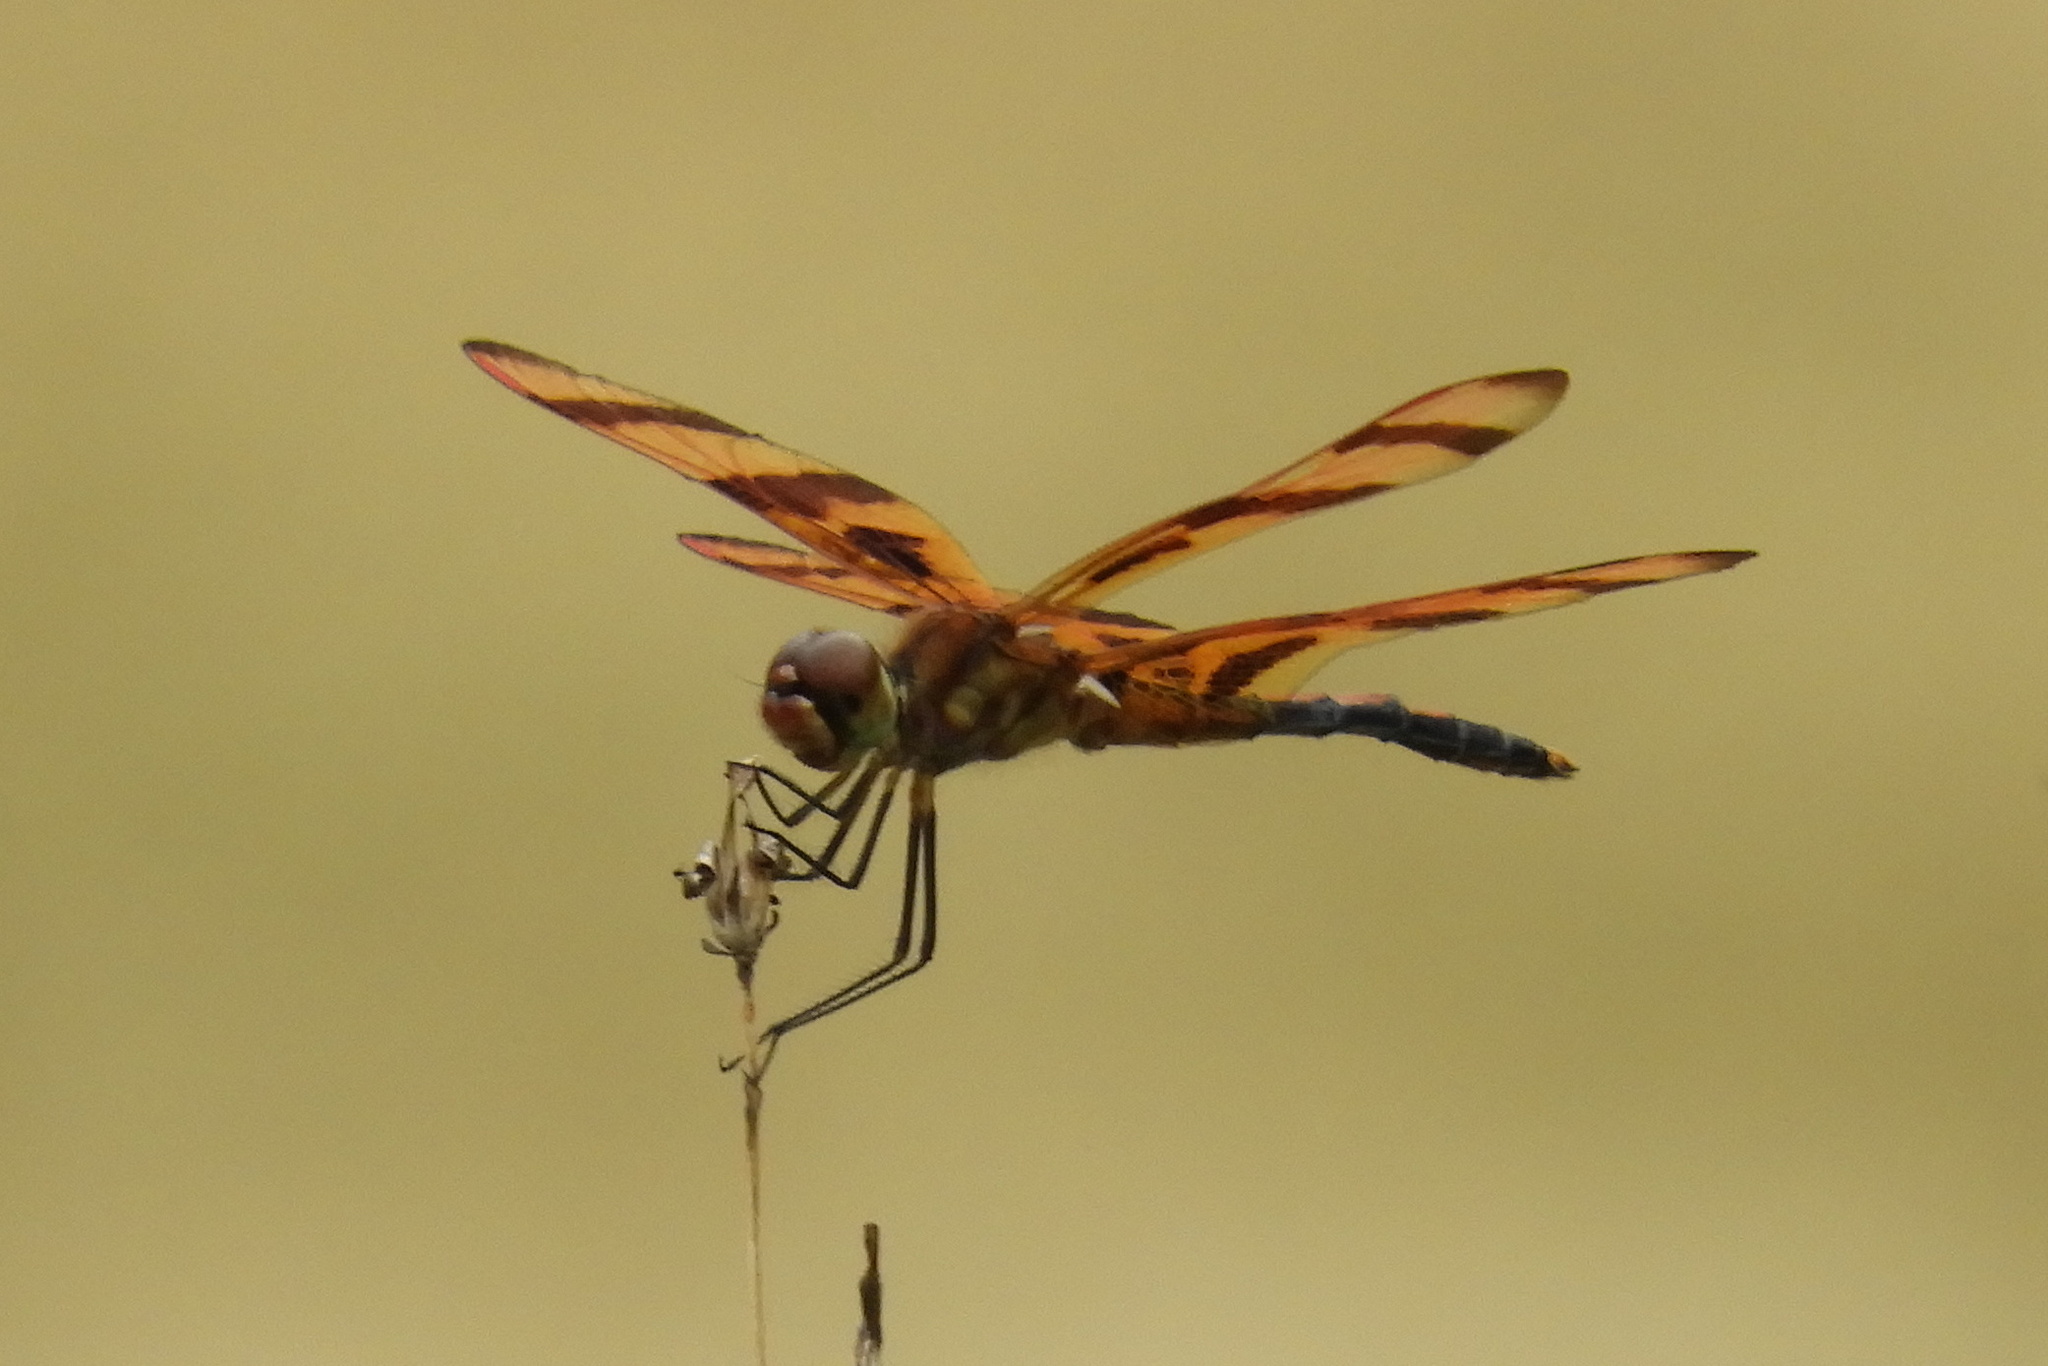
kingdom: Animalia
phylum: Arthropoda
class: Insecta
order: Odonata
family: Libellulidae
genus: Celithemis
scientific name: Celithemis eponina
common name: Halloween pennant
